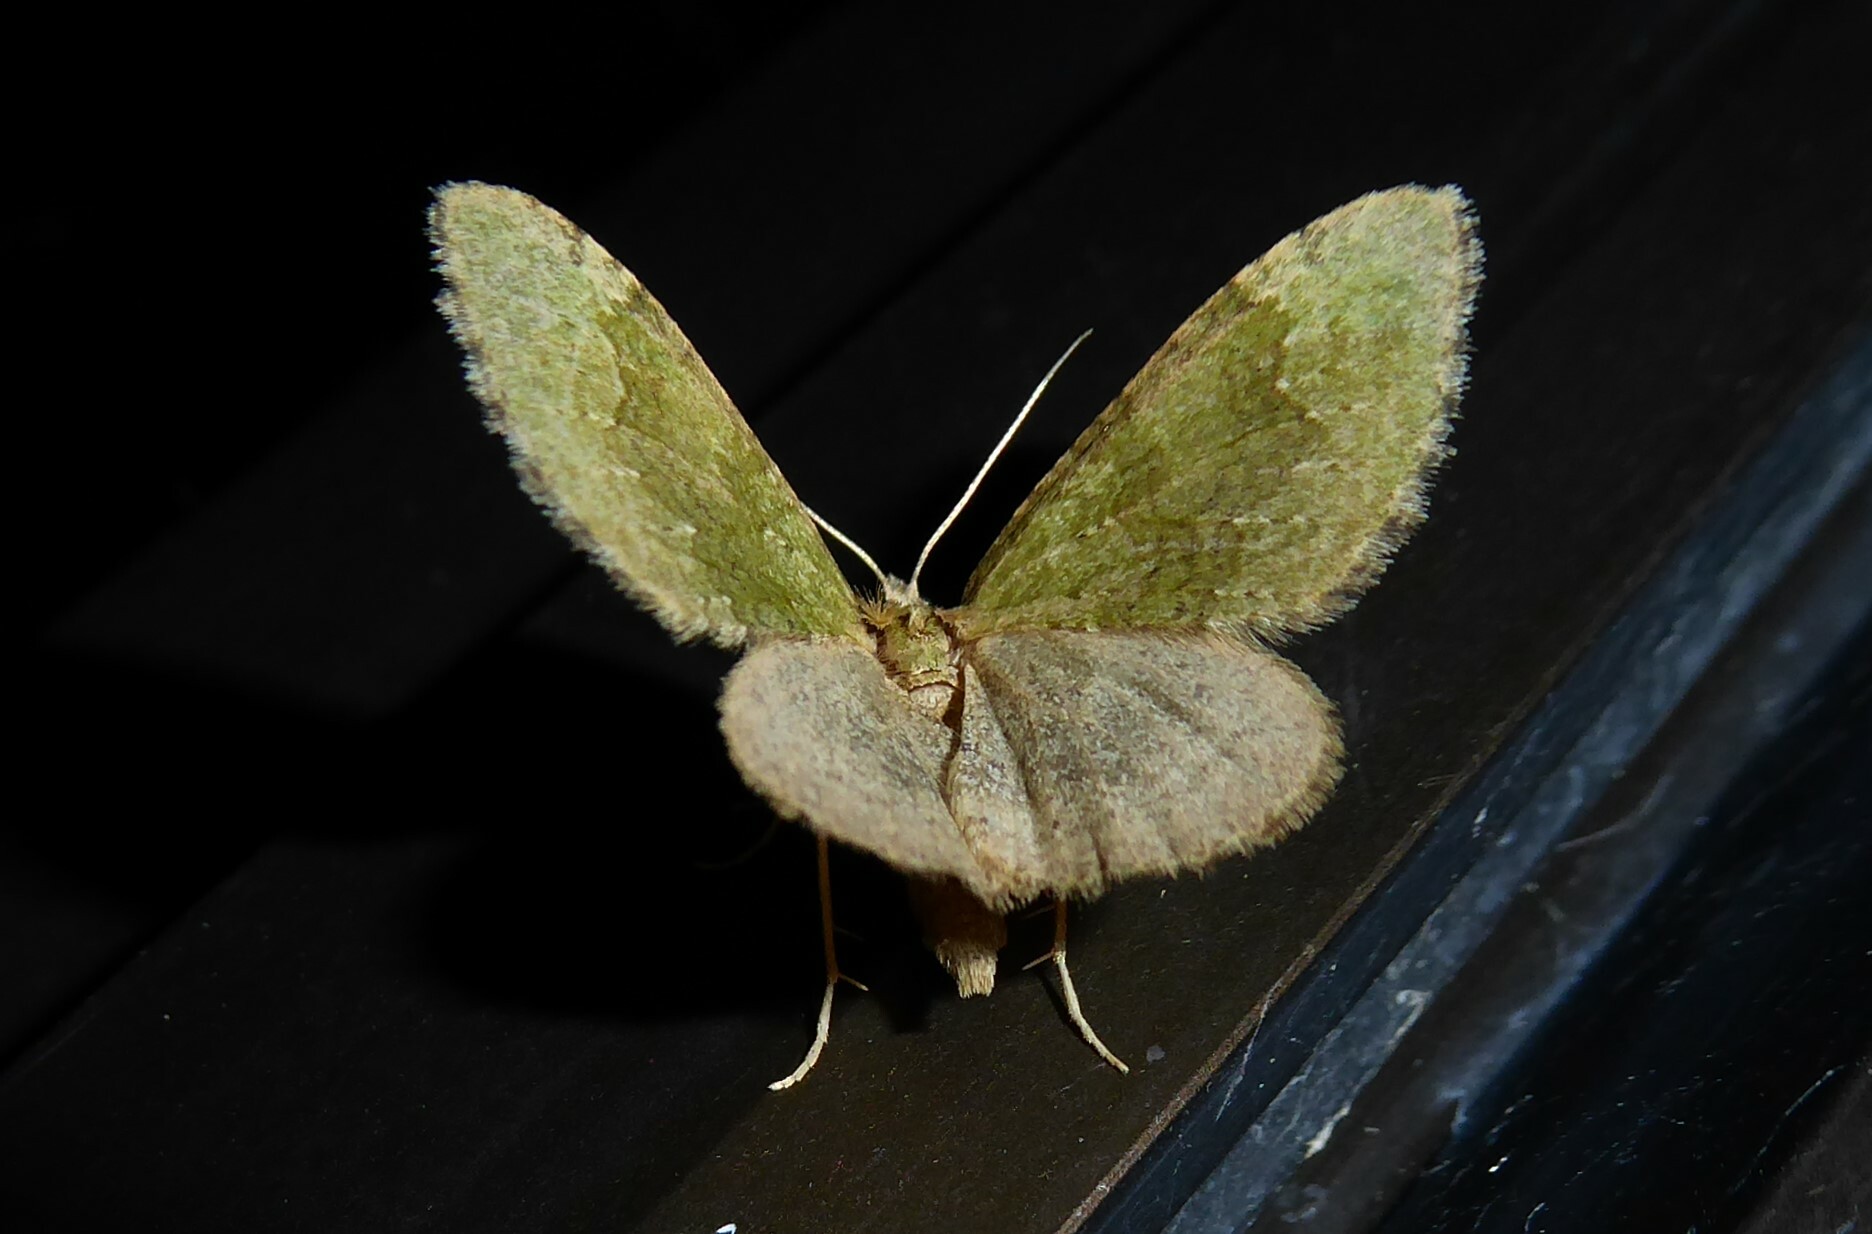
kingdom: Animalia
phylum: Arthropoda
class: Insecta
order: Lepidoptera
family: Geometridae
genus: Epyaxa
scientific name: Epyaxa rosearia
